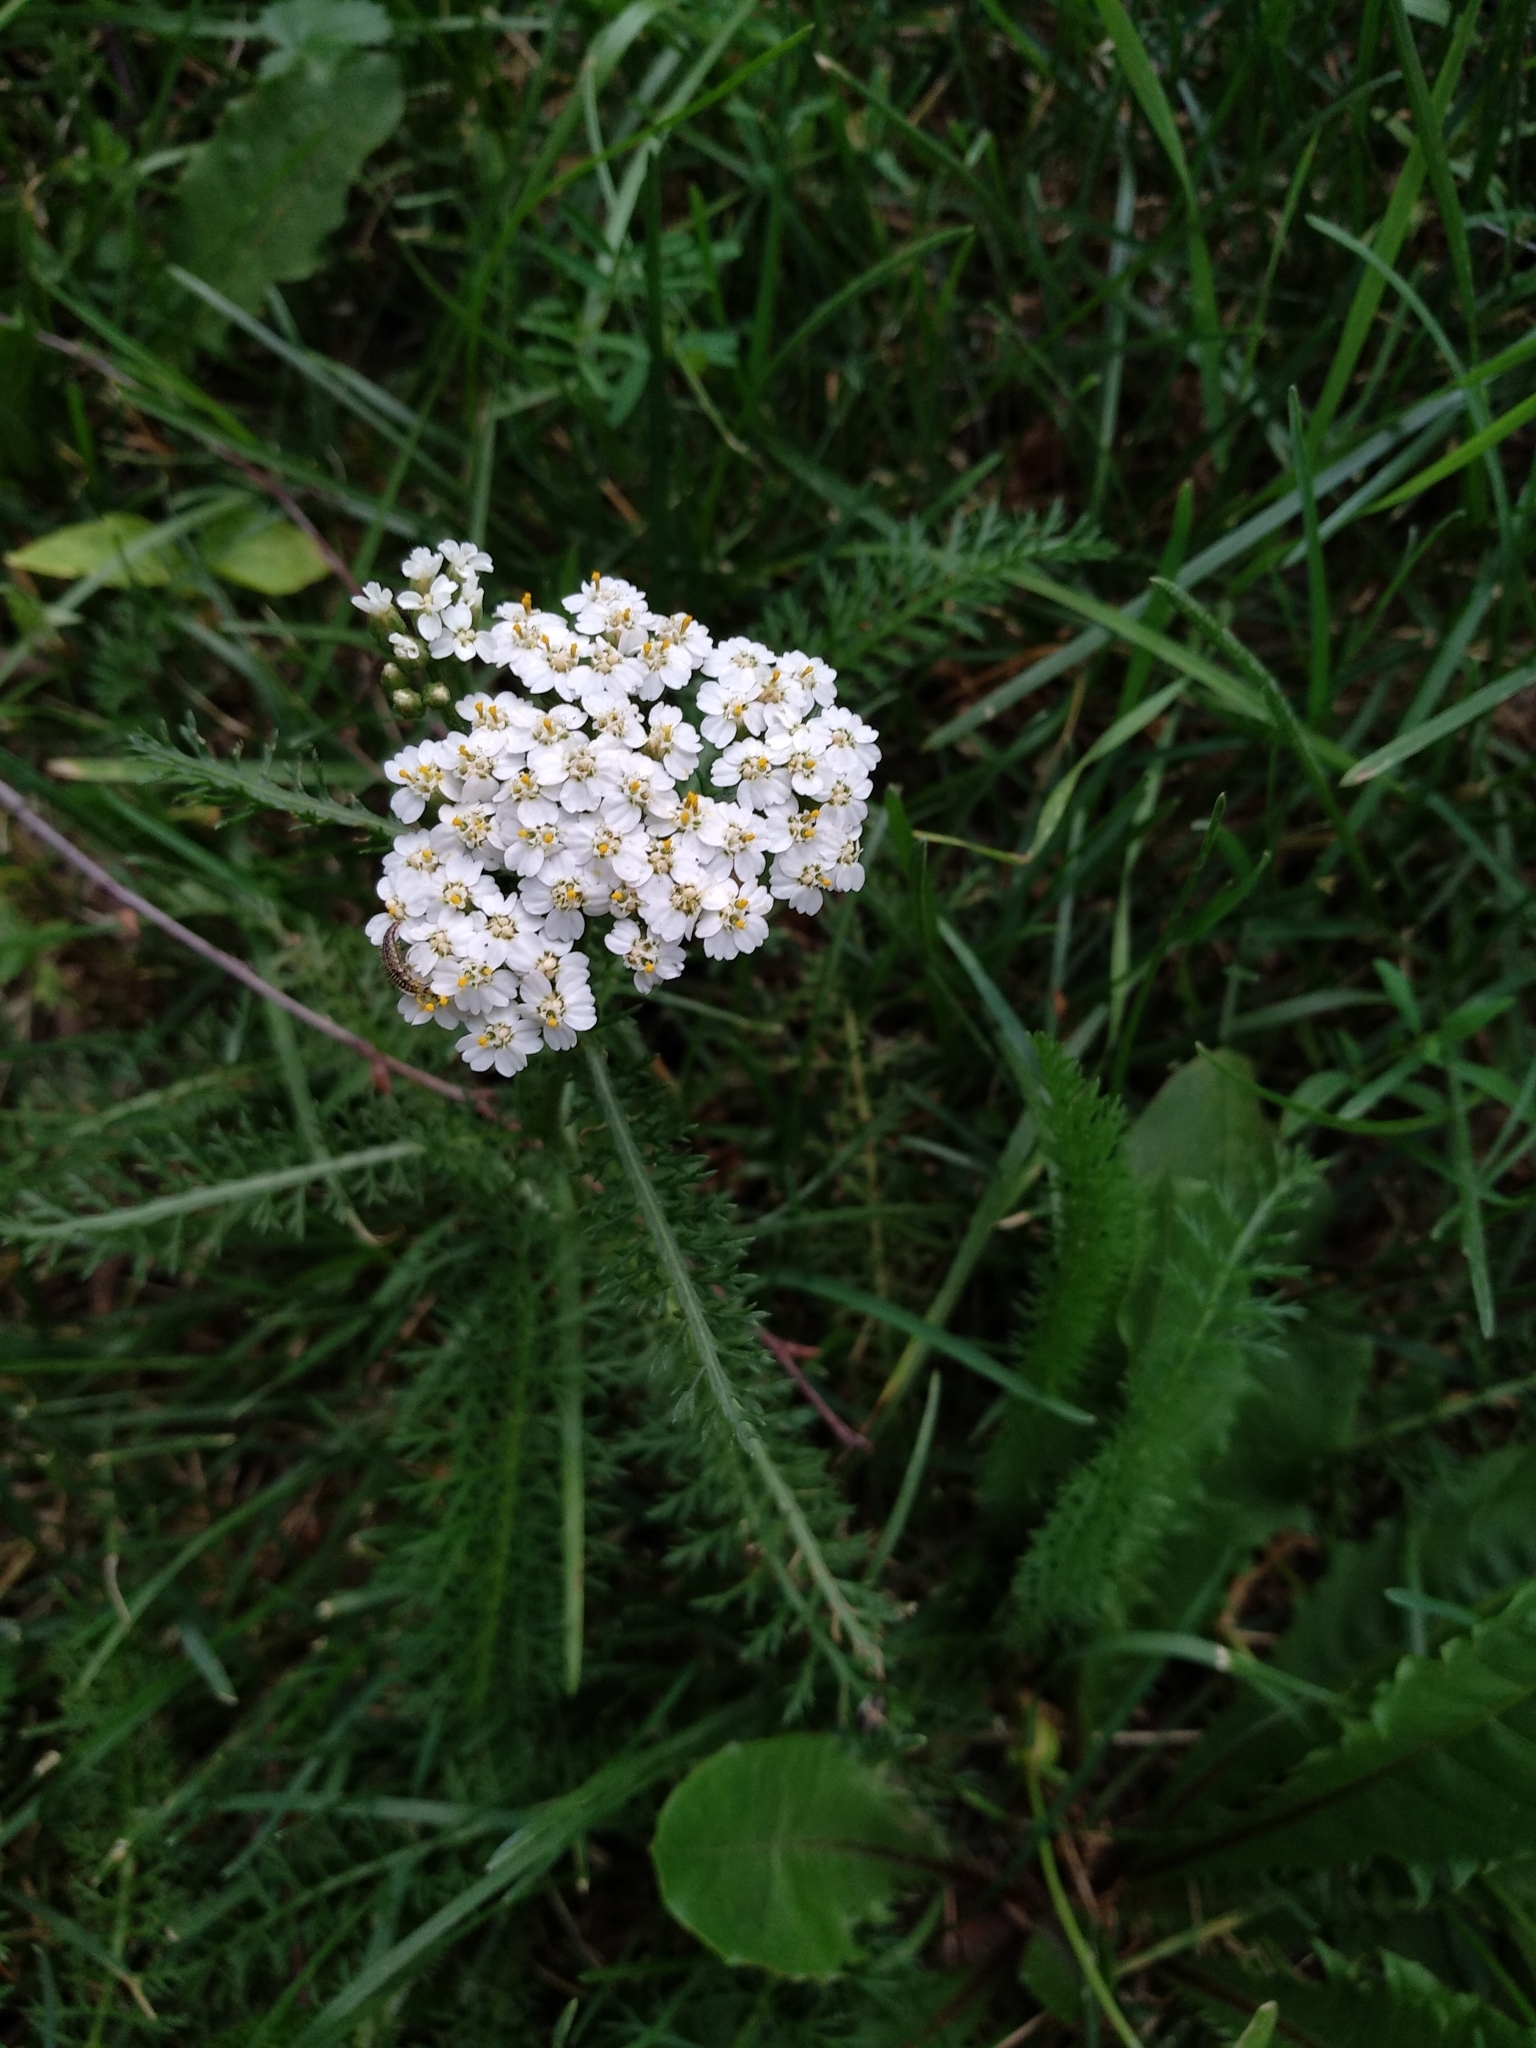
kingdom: Plantae
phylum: Tracheophyta
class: Magnoliopsida
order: Asterales
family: Asteraceae
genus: Achillea
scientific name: Achillea millefolium
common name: Yarrow
